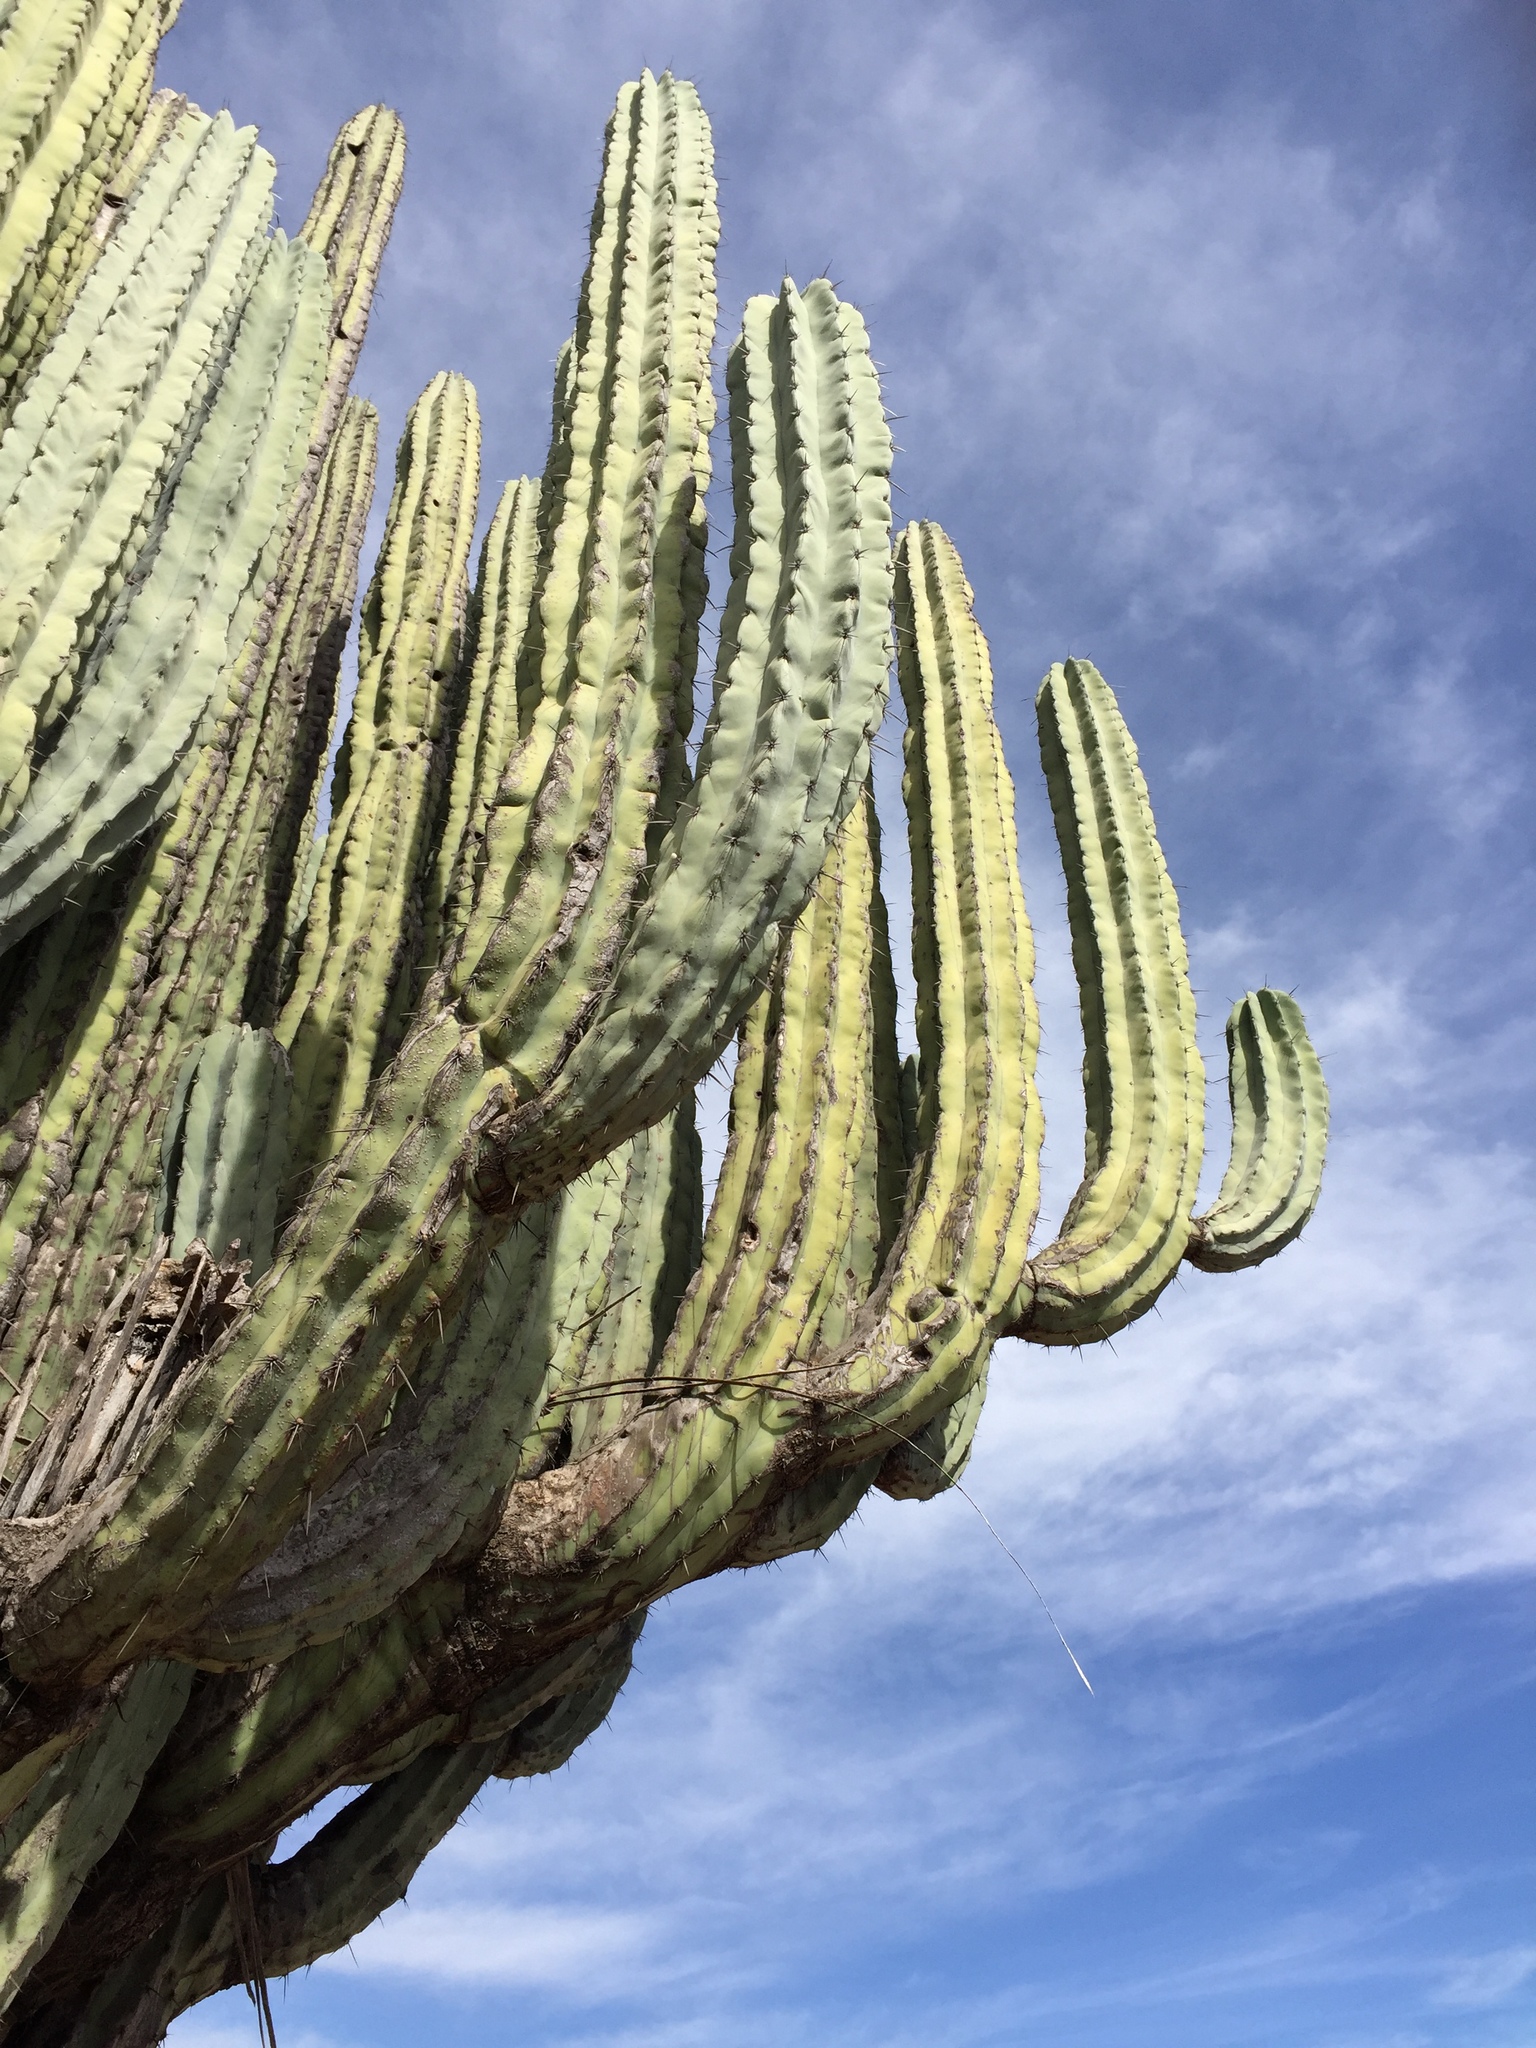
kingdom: Plantae
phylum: Tracheophyta
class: Magnoliopsida
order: Caryophyllales
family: Cactaceae
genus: Pachycereus
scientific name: Pachycereus weberi
